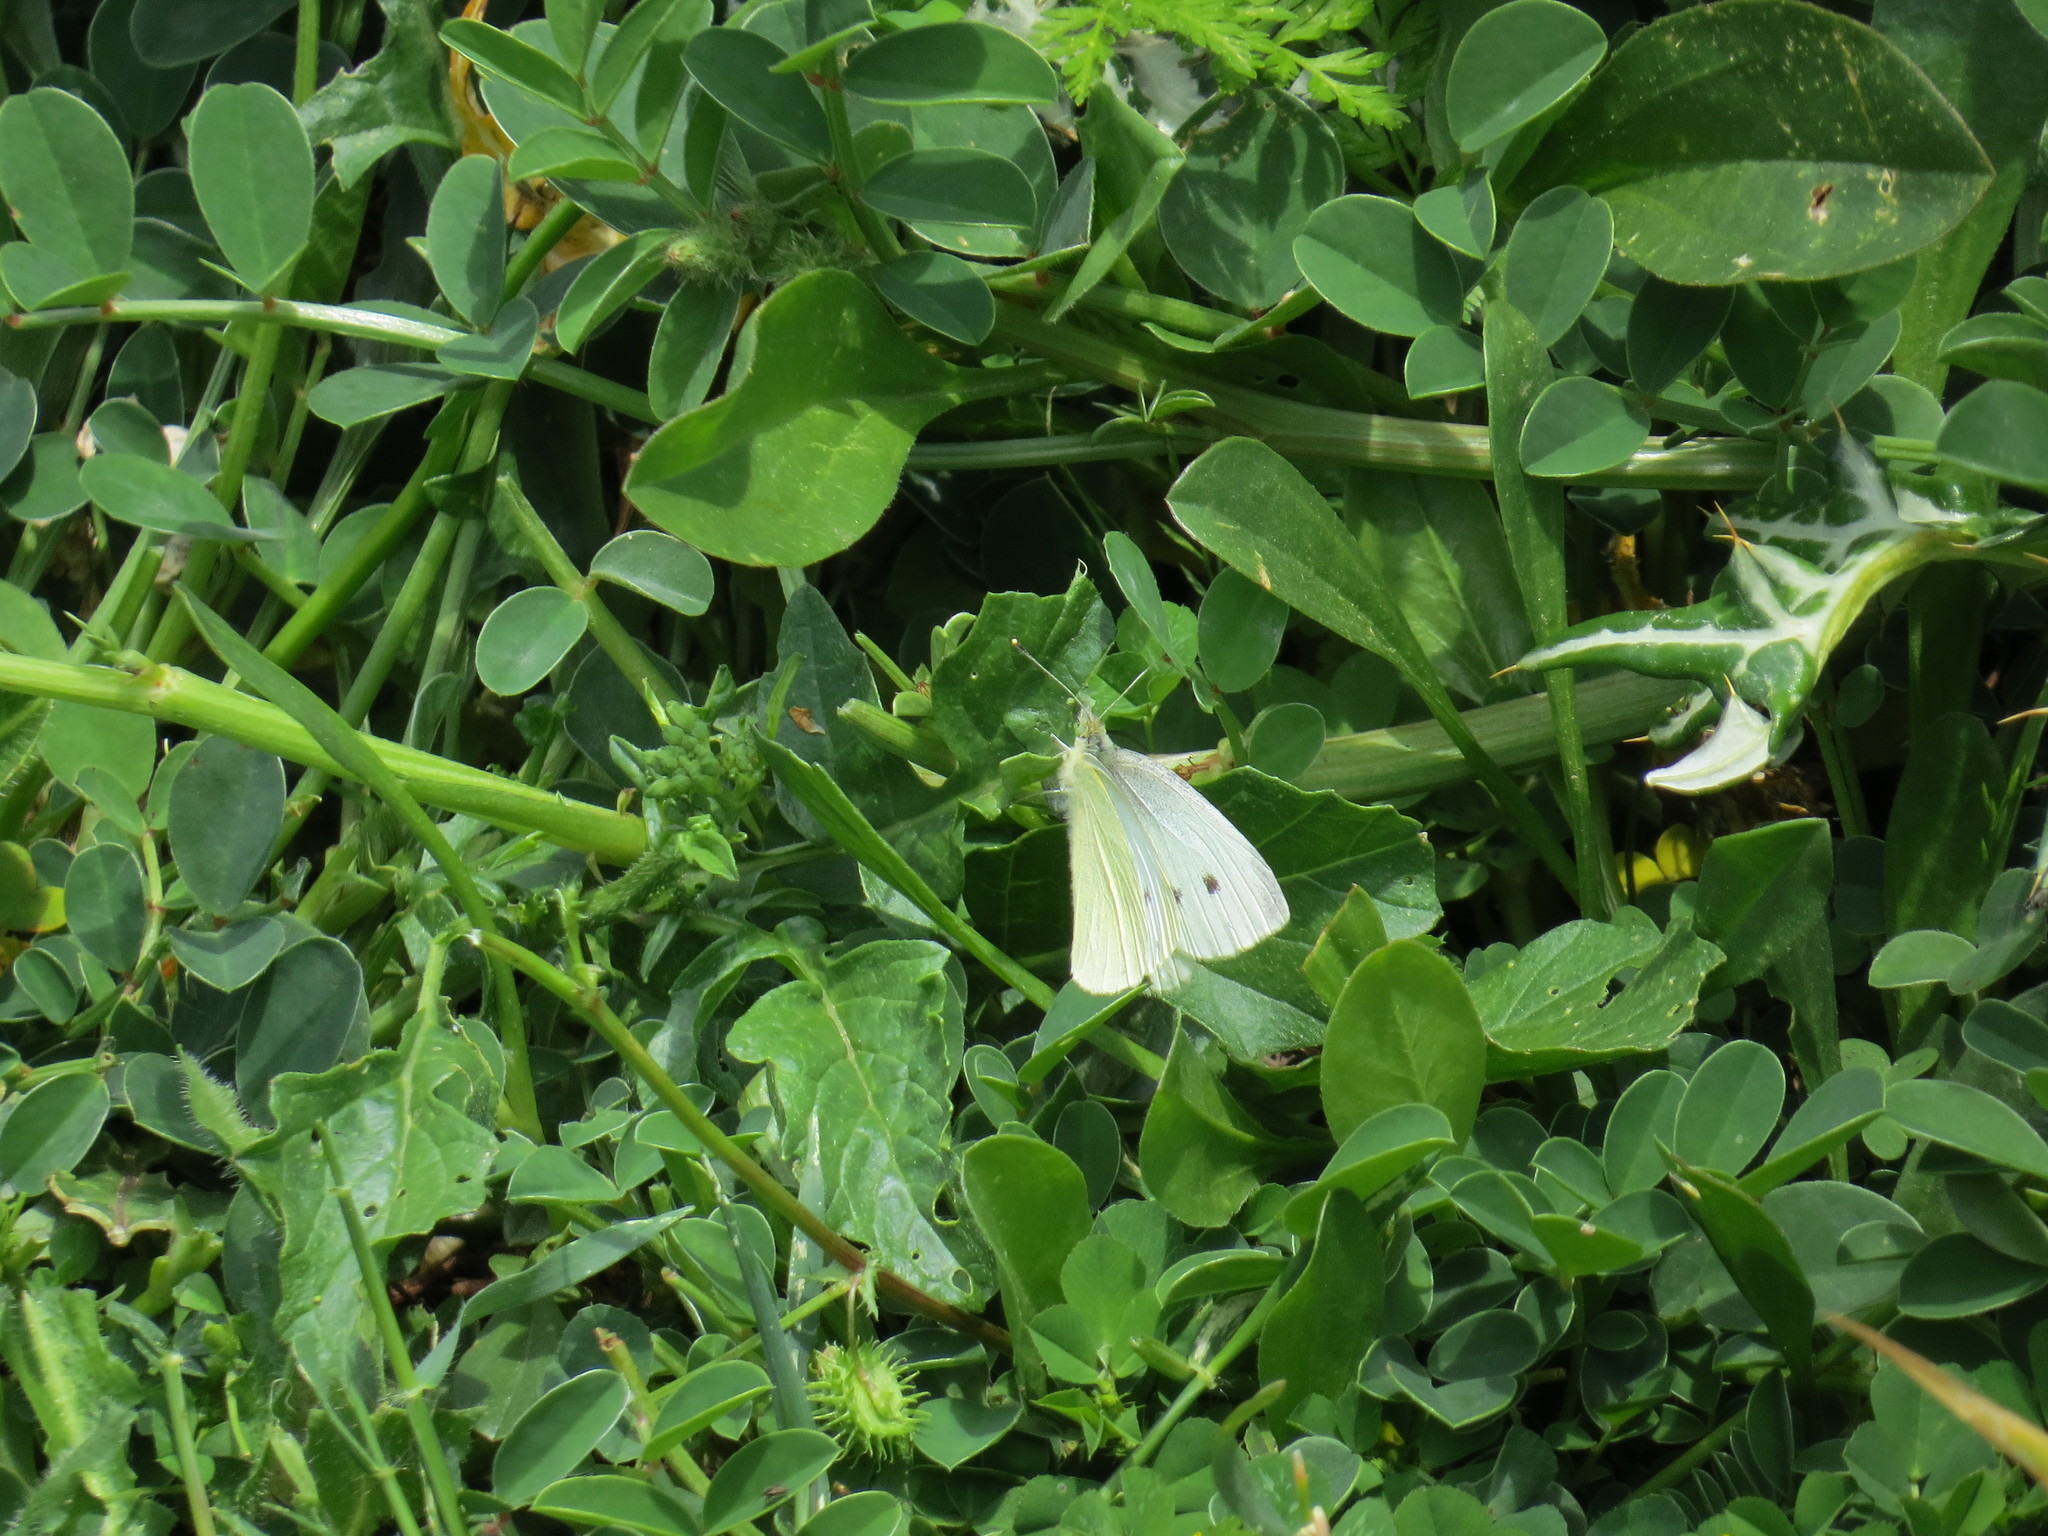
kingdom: Animalia
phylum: Arthropoda
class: Insecta
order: Lepidoptera
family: Pieridae
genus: Pieris
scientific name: Pieris rapae
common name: Small white
